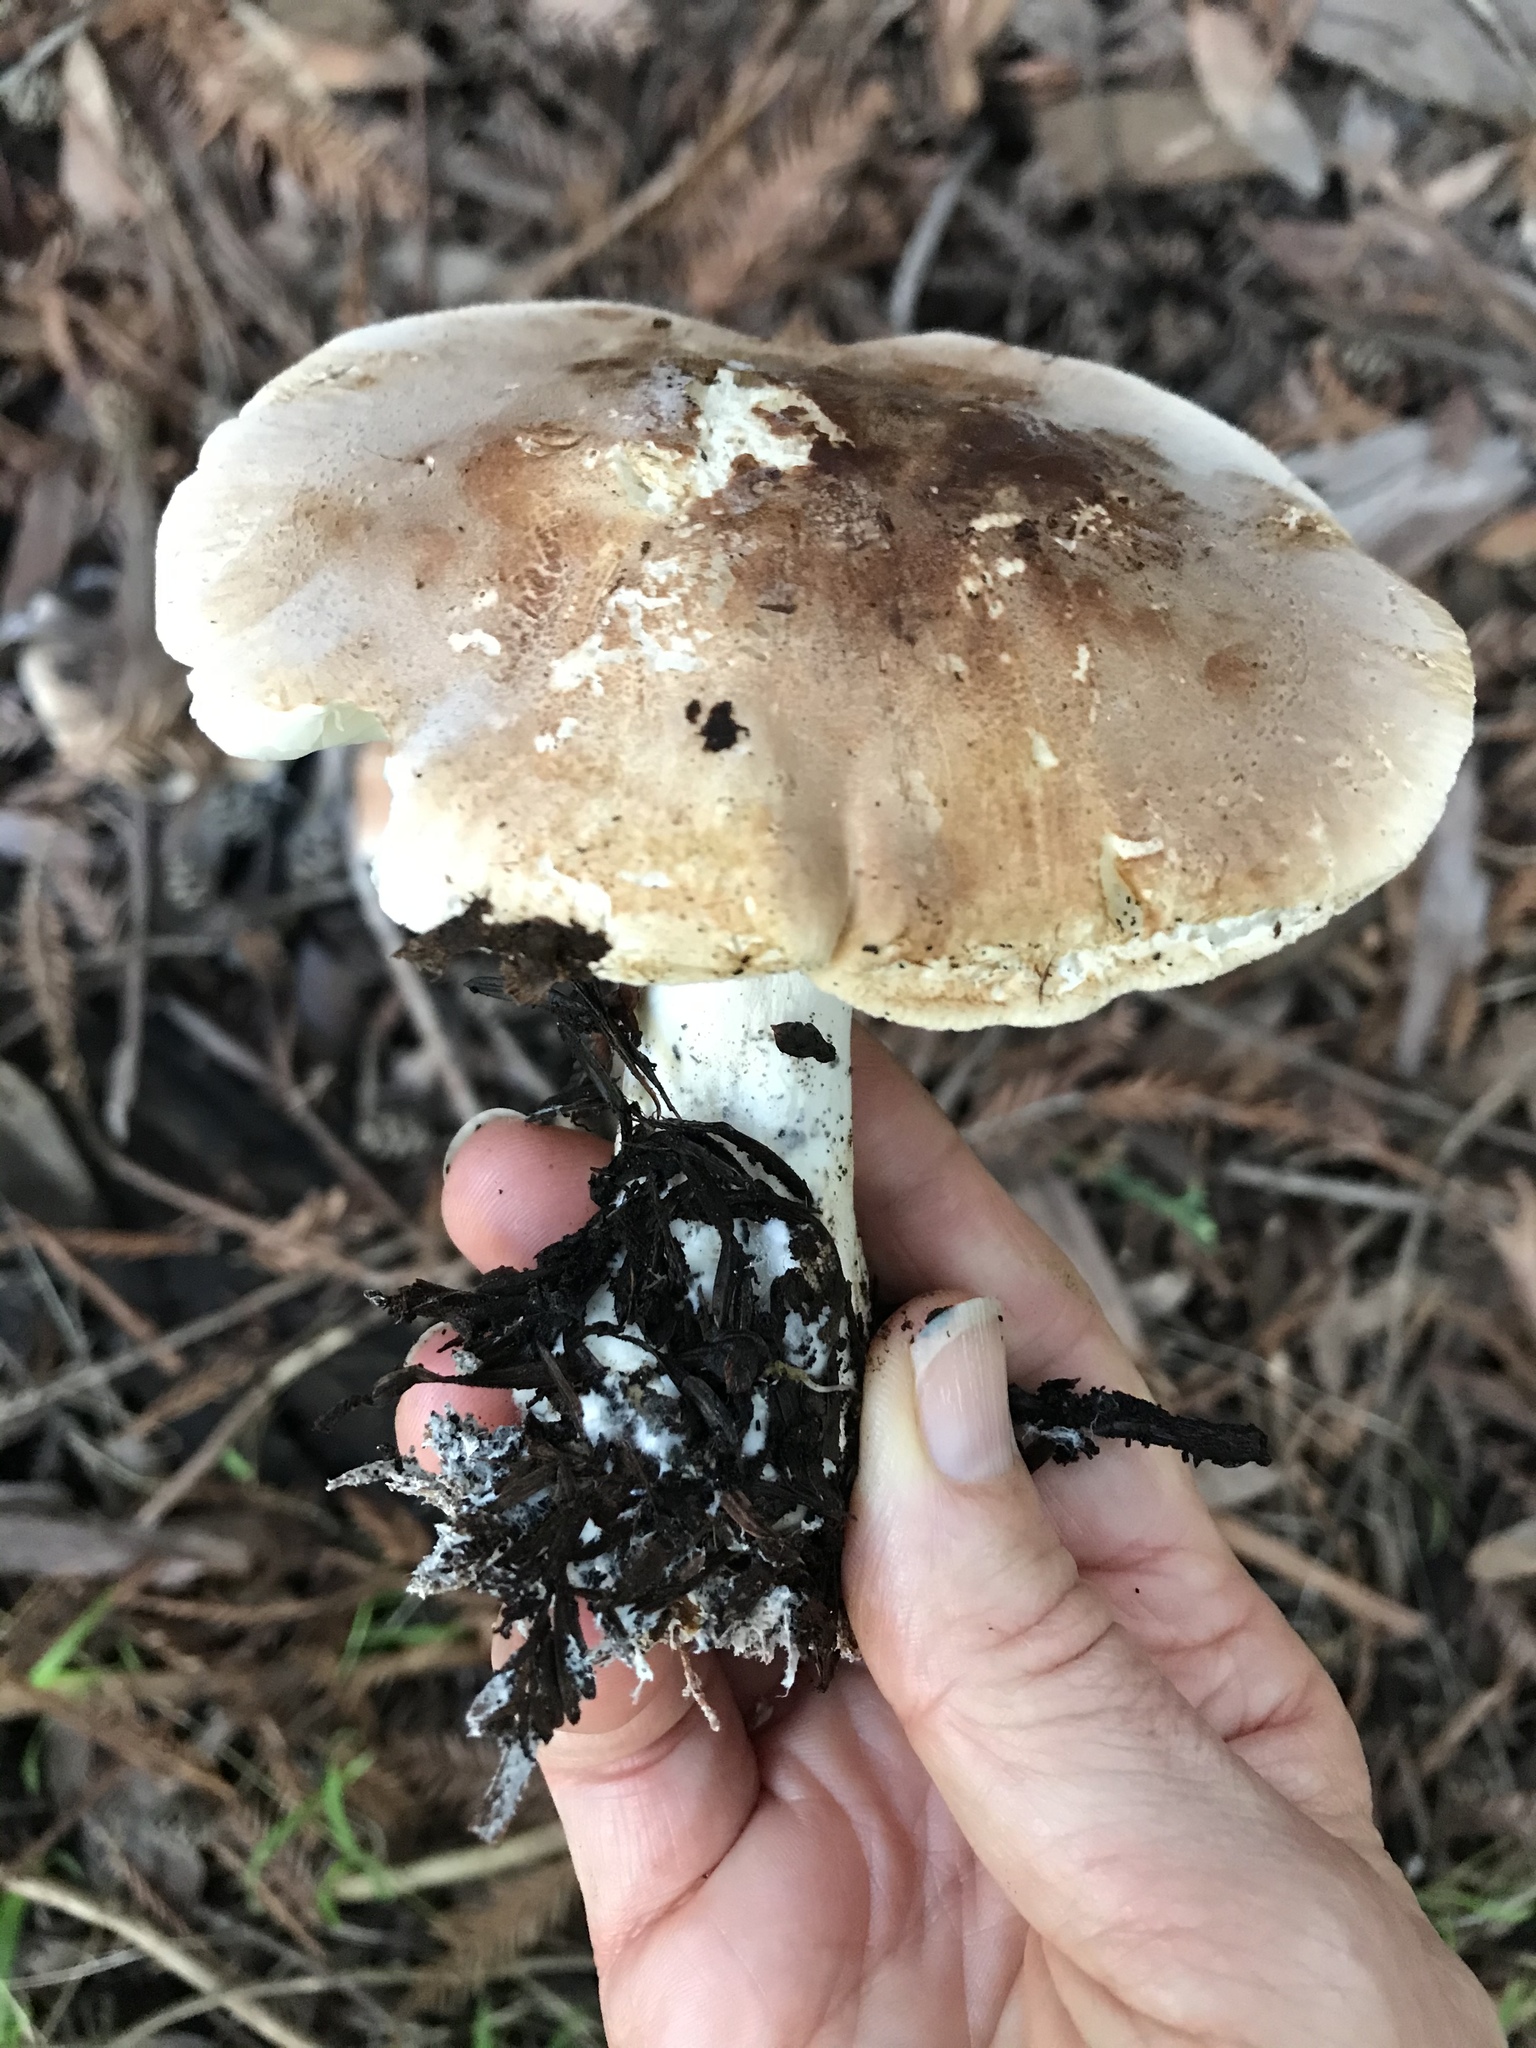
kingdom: Fungi
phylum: Basidiomycota
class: Agaricomycetes
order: Agaricales
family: Tricholomataceae
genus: Leucopaxillus
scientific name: Leucopaxillus gentianeus
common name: Bitter funnel
